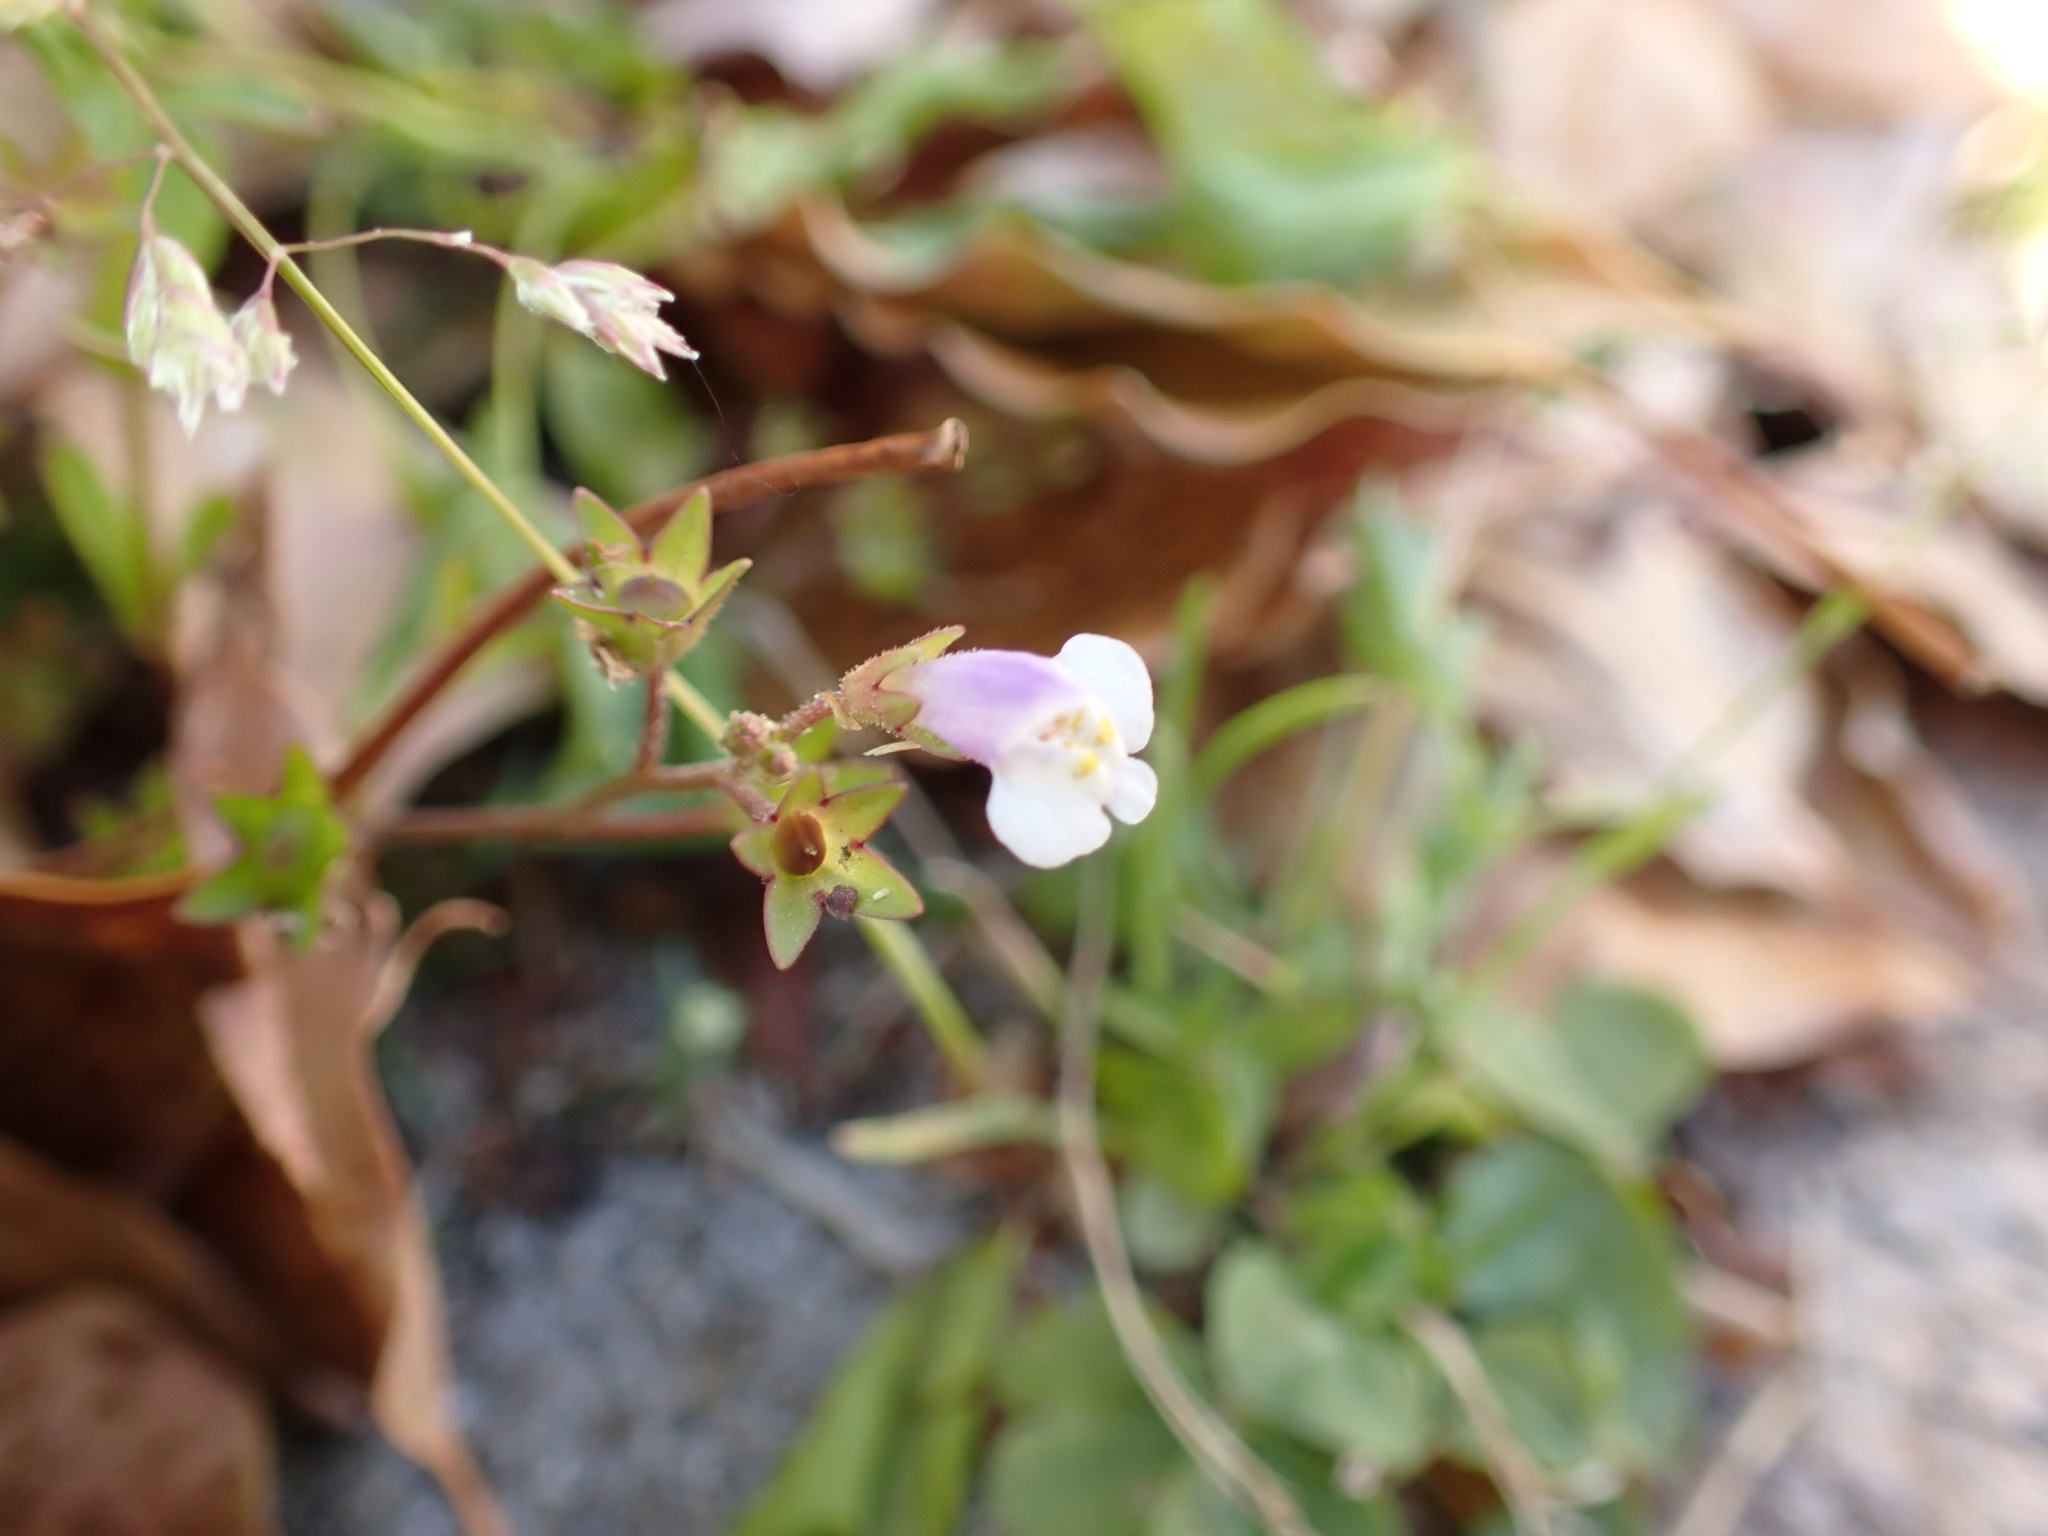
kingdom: Plantae
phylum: Tracheophyta
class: Magnoliopsida
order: Lamiales
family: Mazaceae
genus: Mazus
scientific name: Mazus pumilus
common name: Japanese mazus
